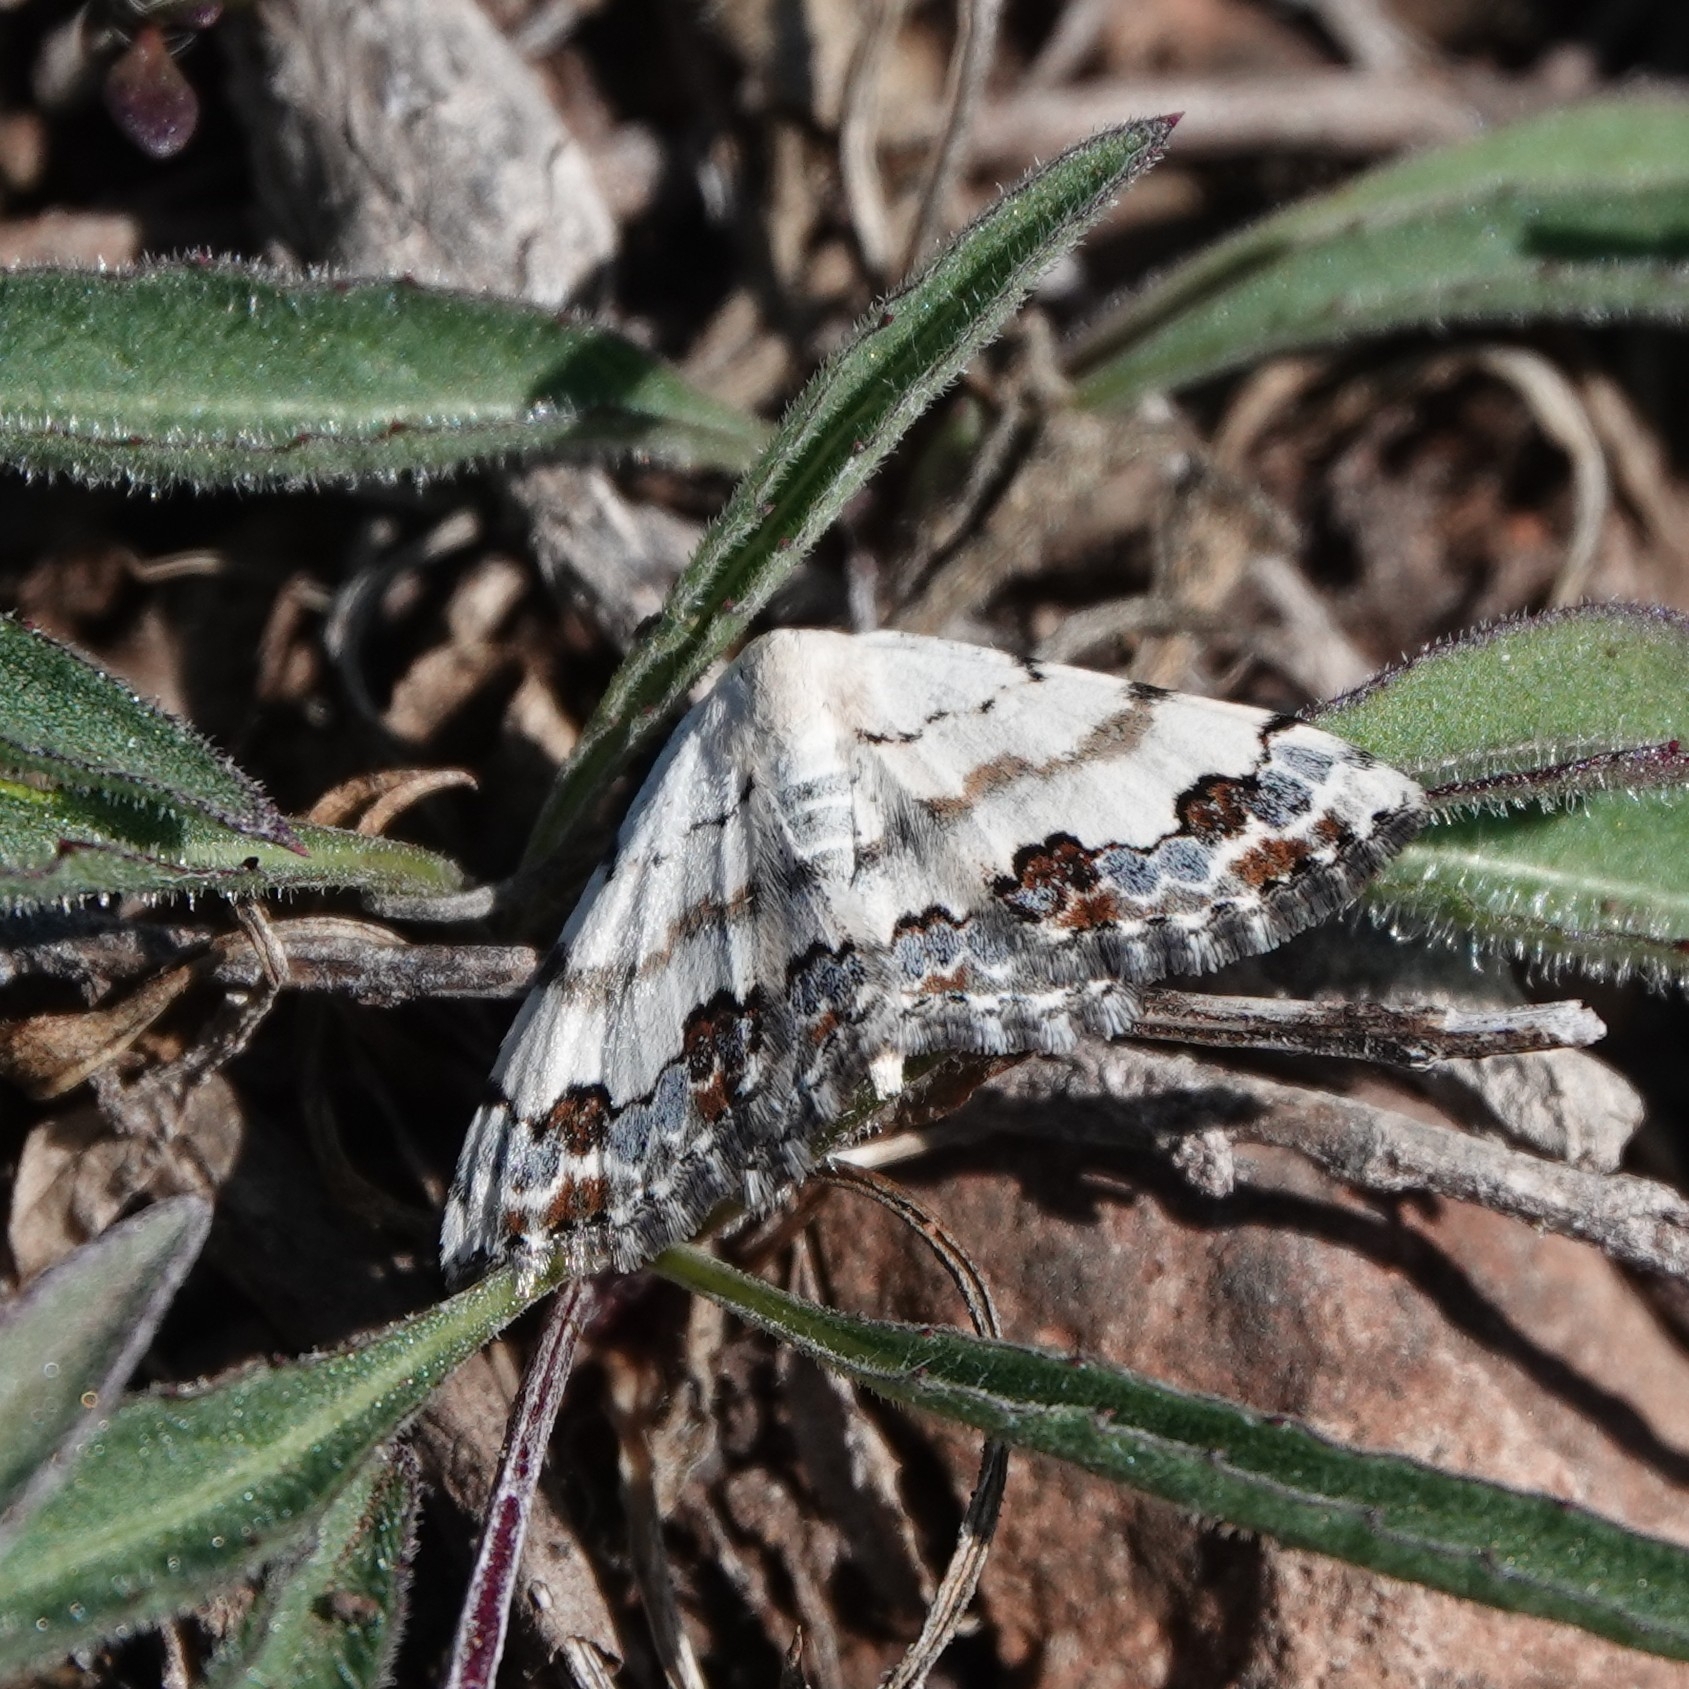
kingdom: Animalia
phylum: Arthropoda
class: Insecta
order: Lepidoptera
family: Geometridae
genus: Scopula
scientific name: Scopula decorata
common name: Middle lace border
